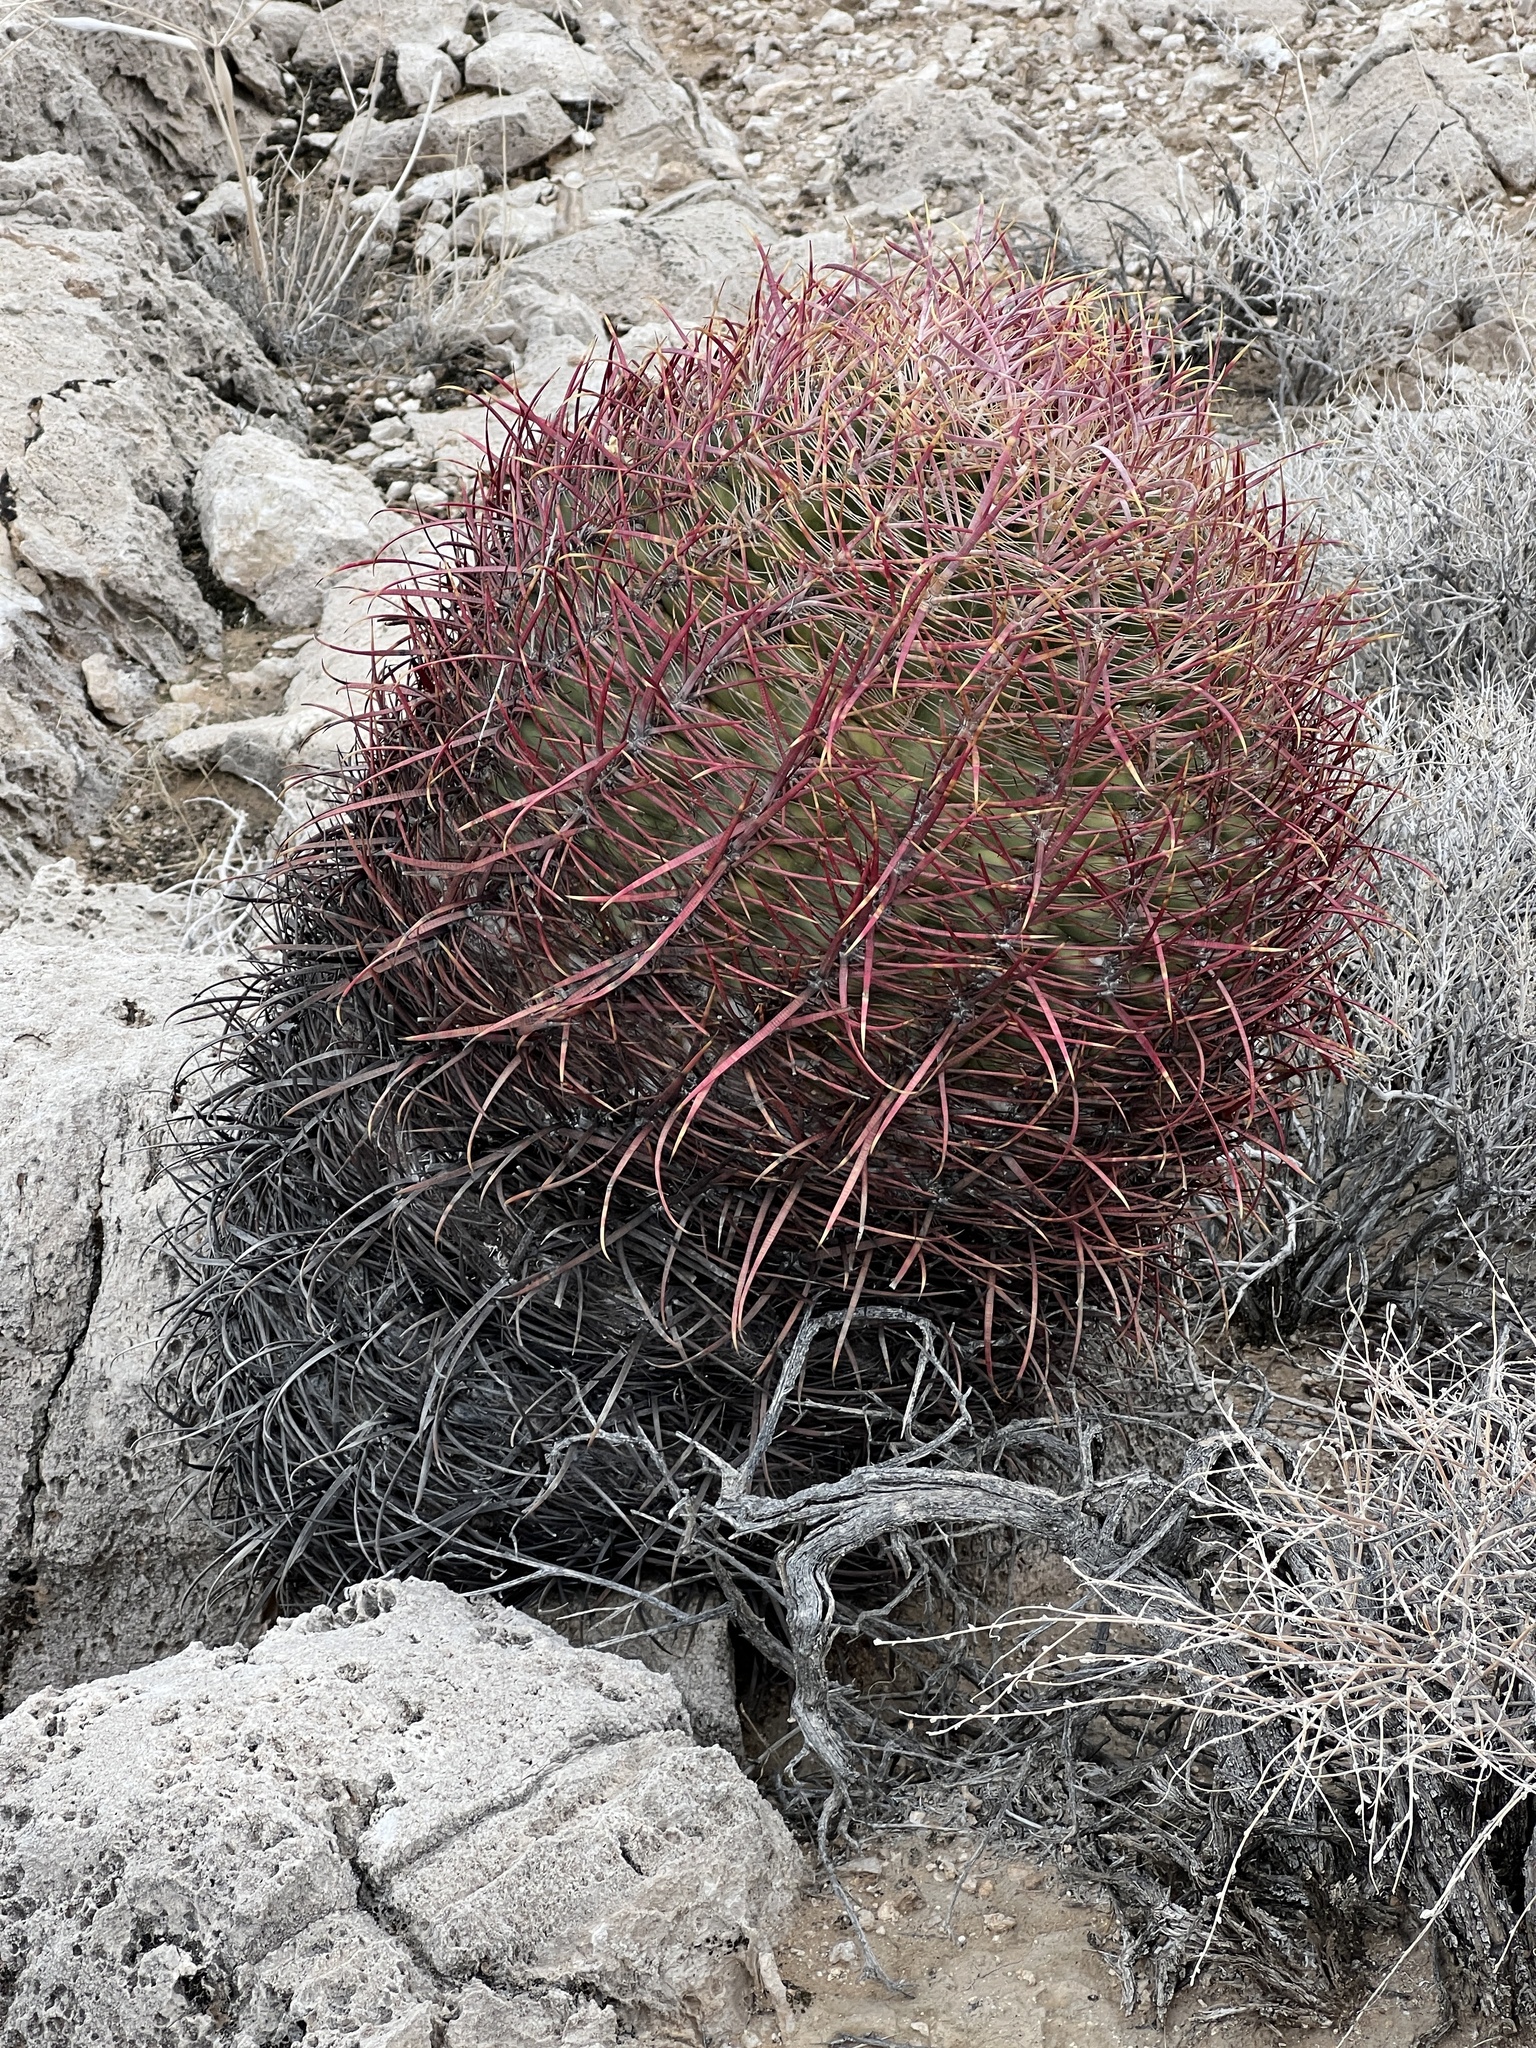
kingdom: Plantae
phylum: Tracheophyta
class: Magnoliopsida
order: Caryophyllales
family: Cactaceae
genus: Ferocactus
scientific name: Ferocactus cylindraceus
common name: California barrel cactus
